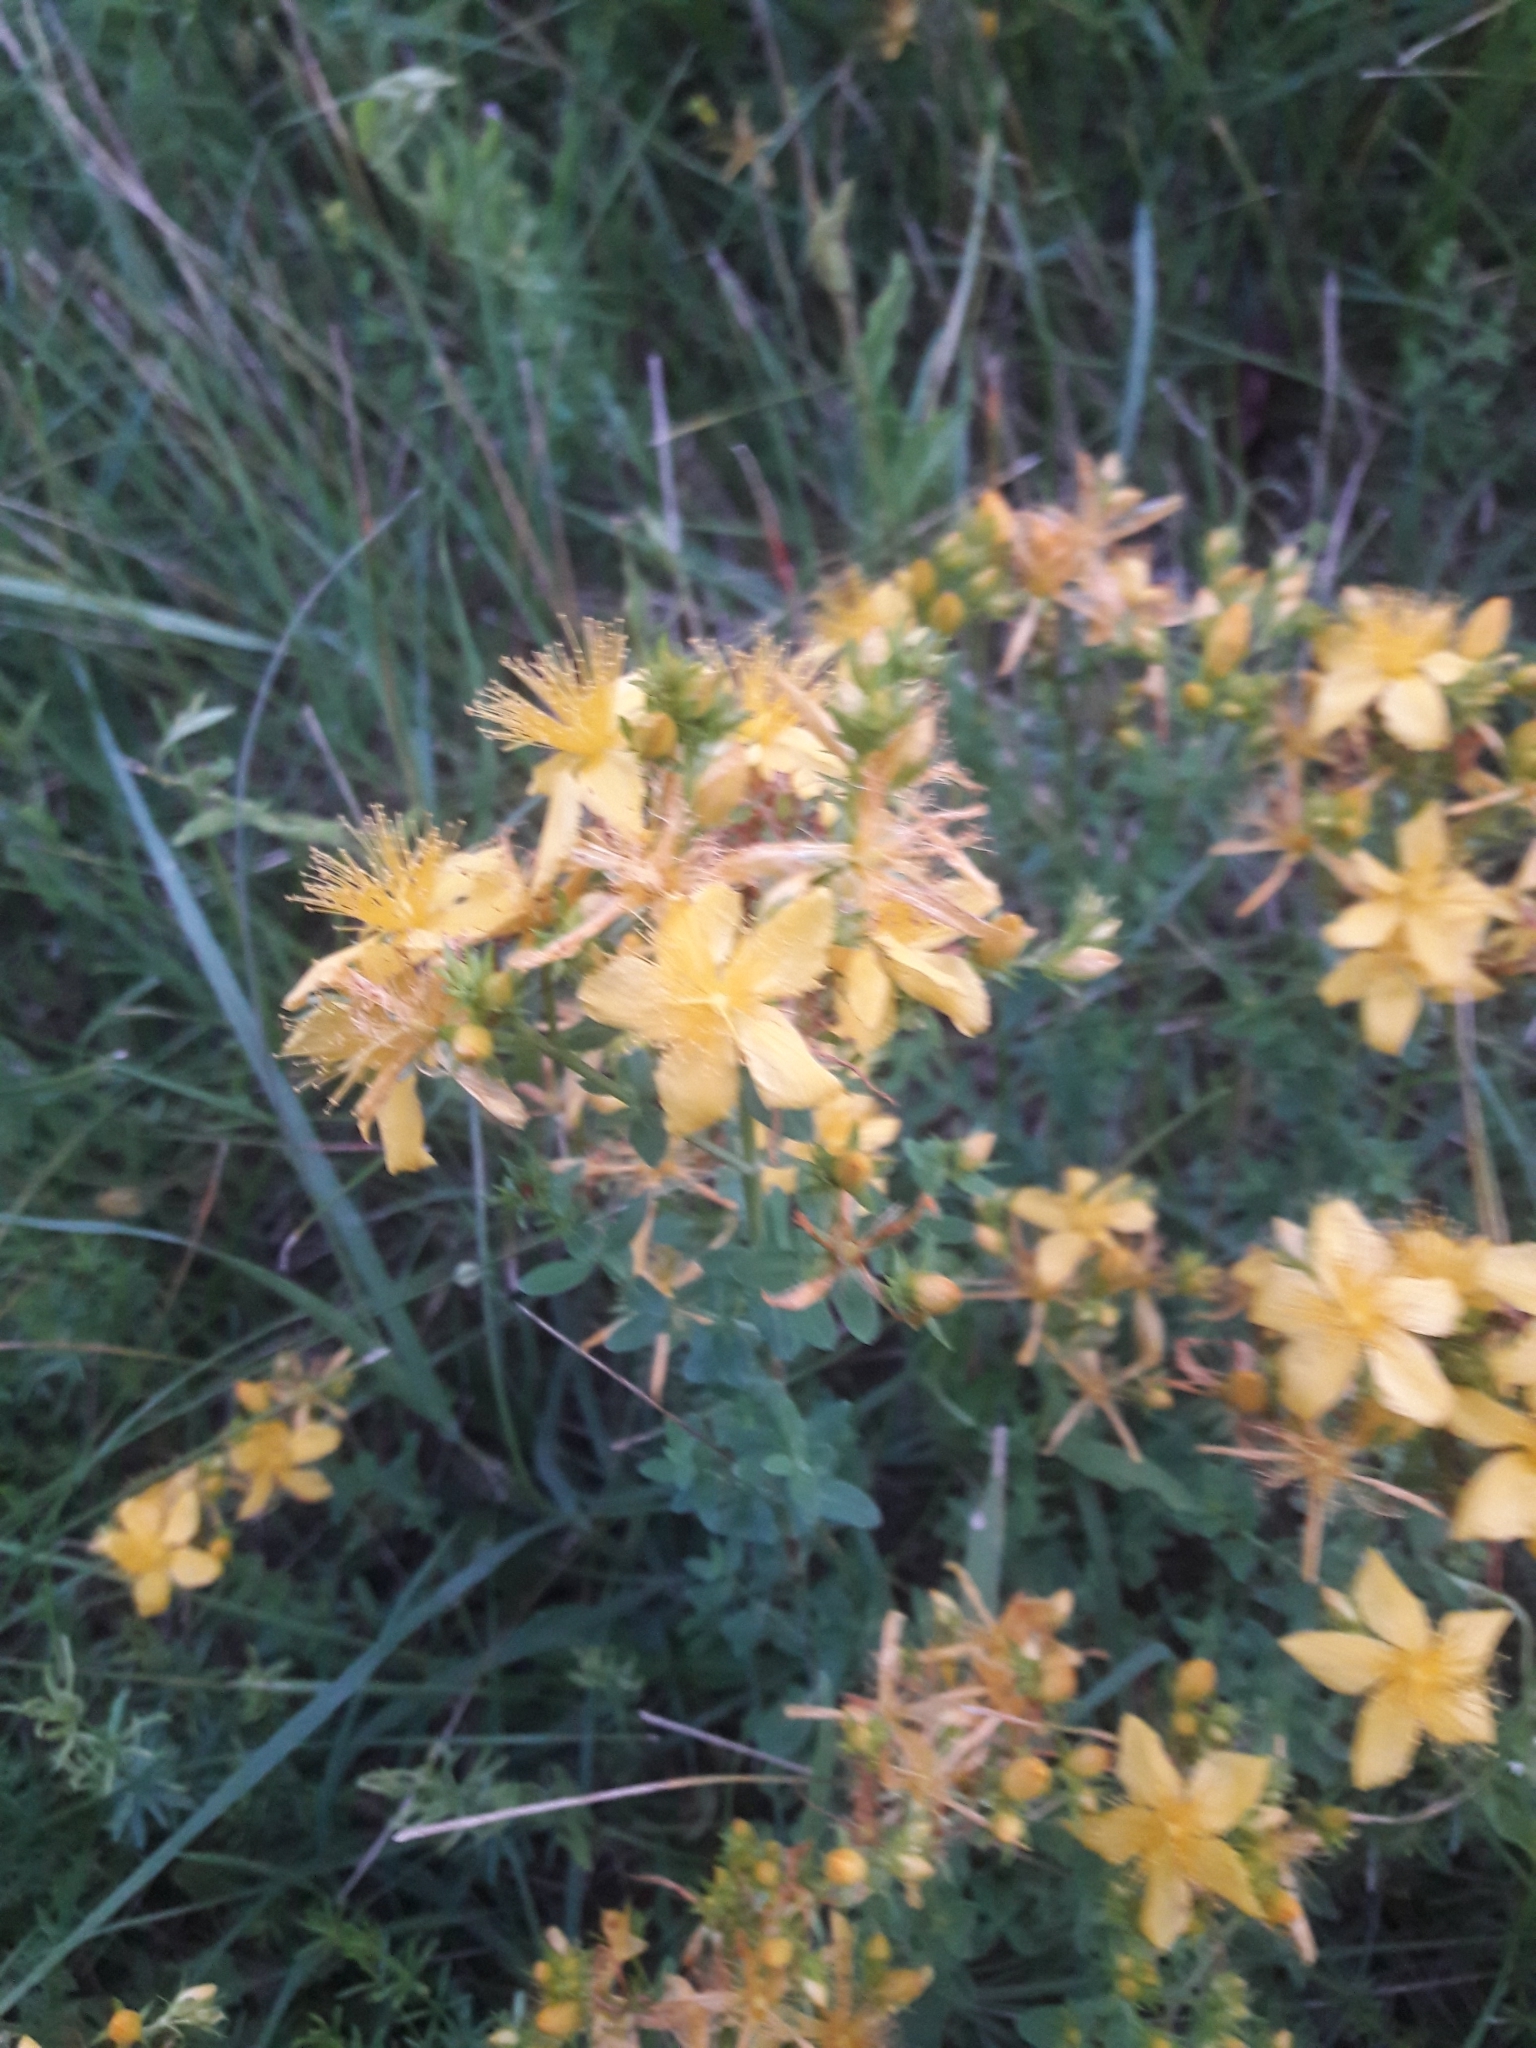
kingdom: Plantae
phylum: Tracheophyta
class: Magnoliopsida
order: Malpighiales
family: Hypericaceae
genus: Hypericum
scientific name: Hypericum perforatum
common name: Common st. johnswort
